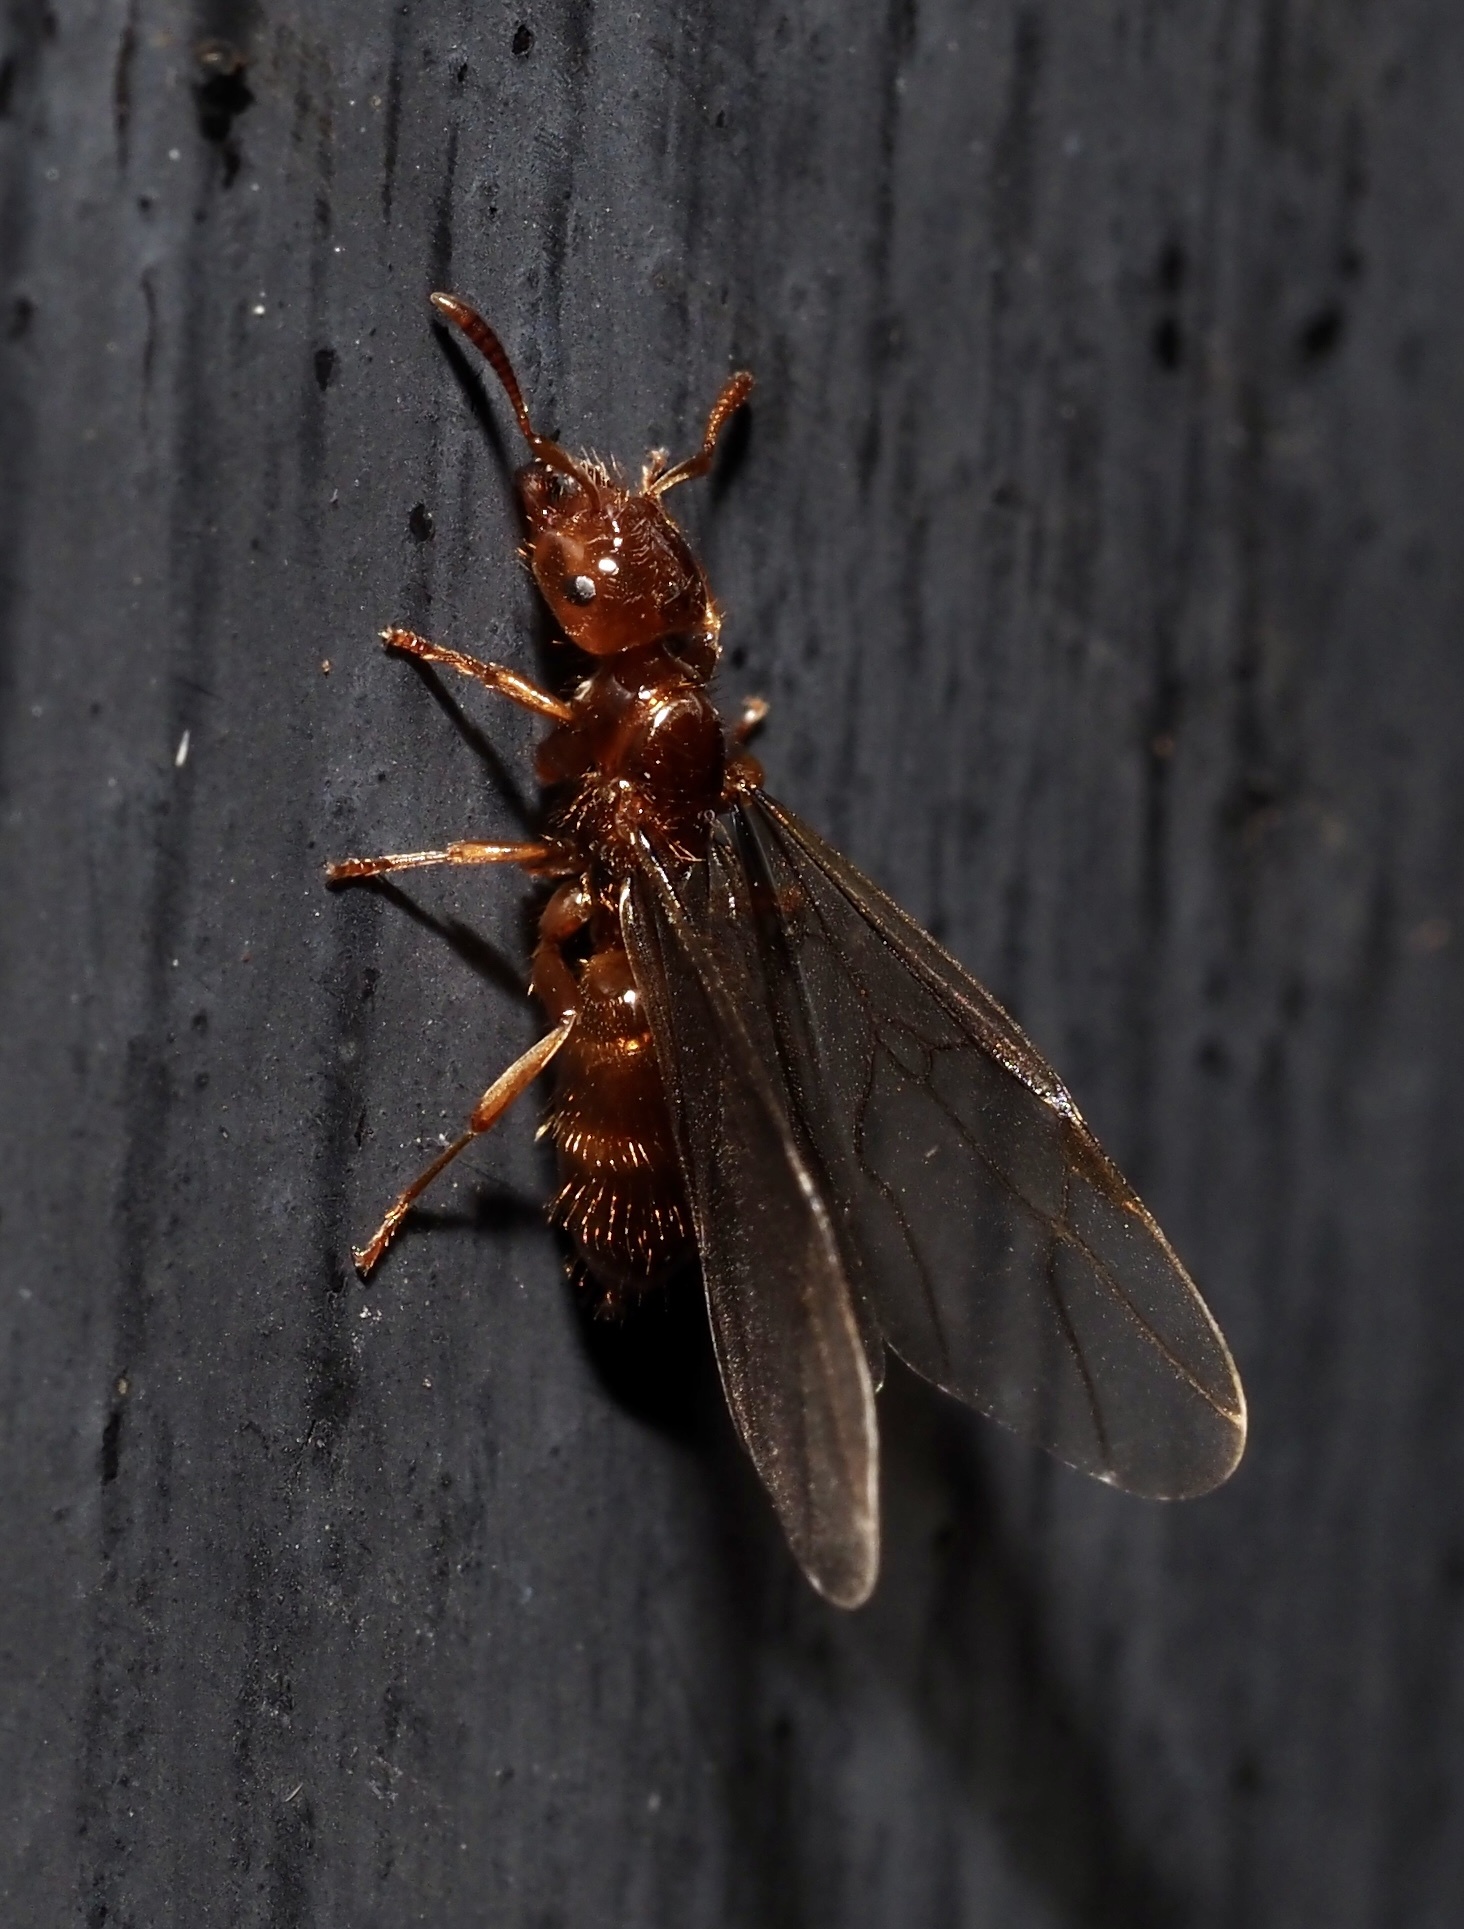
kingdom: Animalia
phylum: Arthropoda
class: Insecta
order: Hymenoptera
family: Formicidae
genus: Lasius
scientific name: Lasius claviger
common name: Common citronella ant
